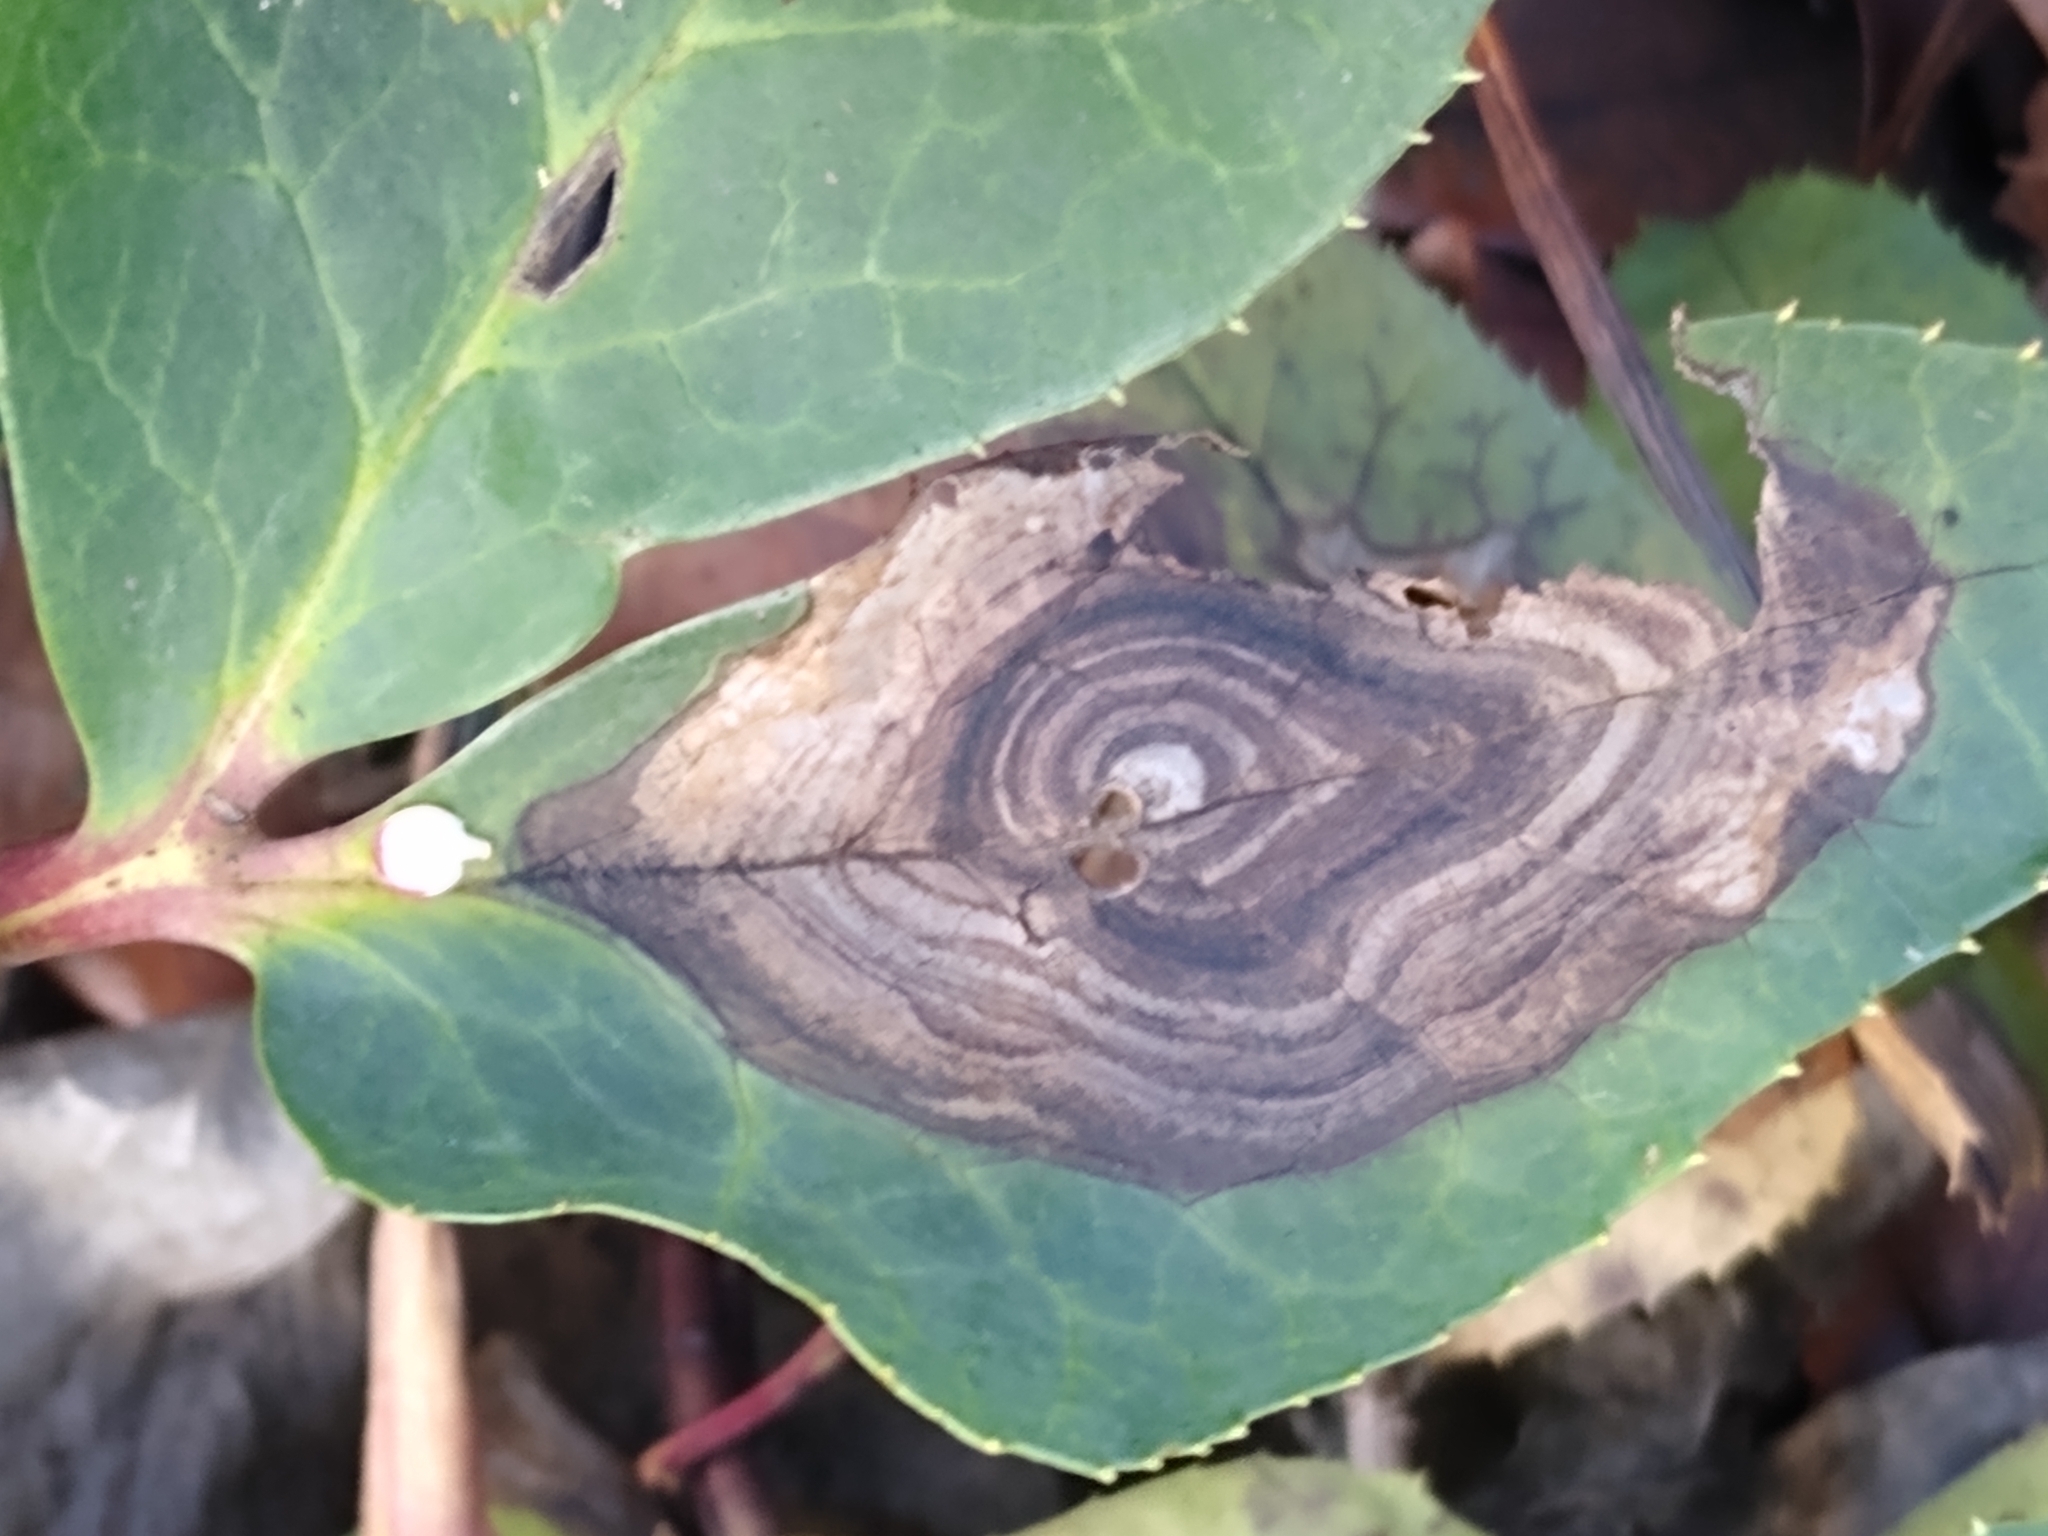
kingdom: Fungi
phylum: Ascomycota
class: Dothideomycetes
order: Pleosporales
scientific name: Pleosporales
